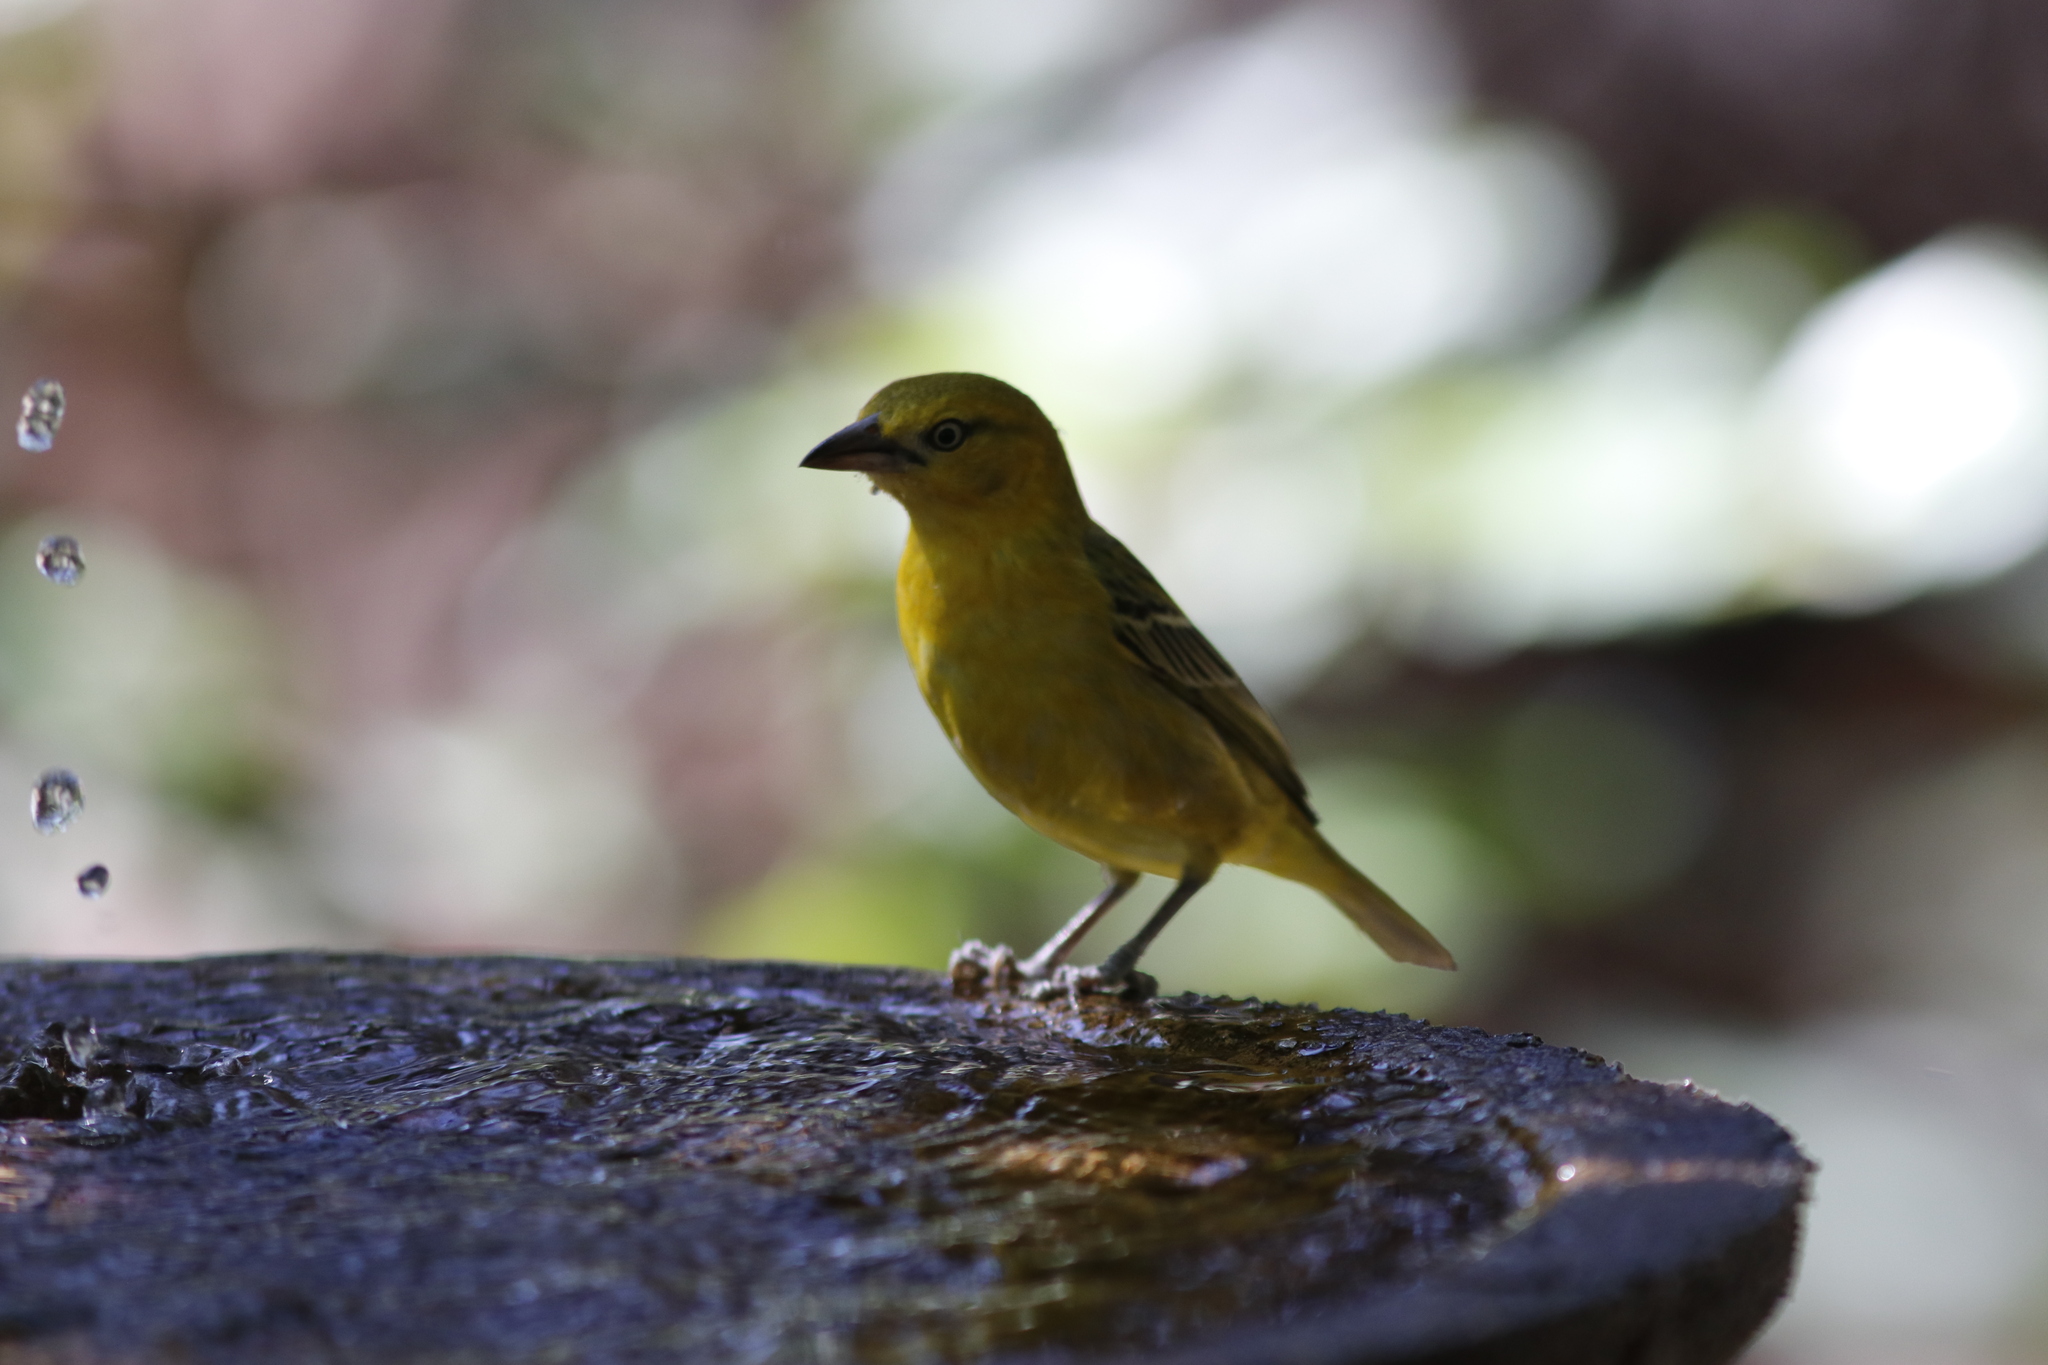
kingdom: Animalia
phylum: Chordata
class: Aves
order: Passeriformes
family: Ploceidae
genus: Ploceus
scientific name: Ploceus intermedius
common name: Lesser masked weaver
